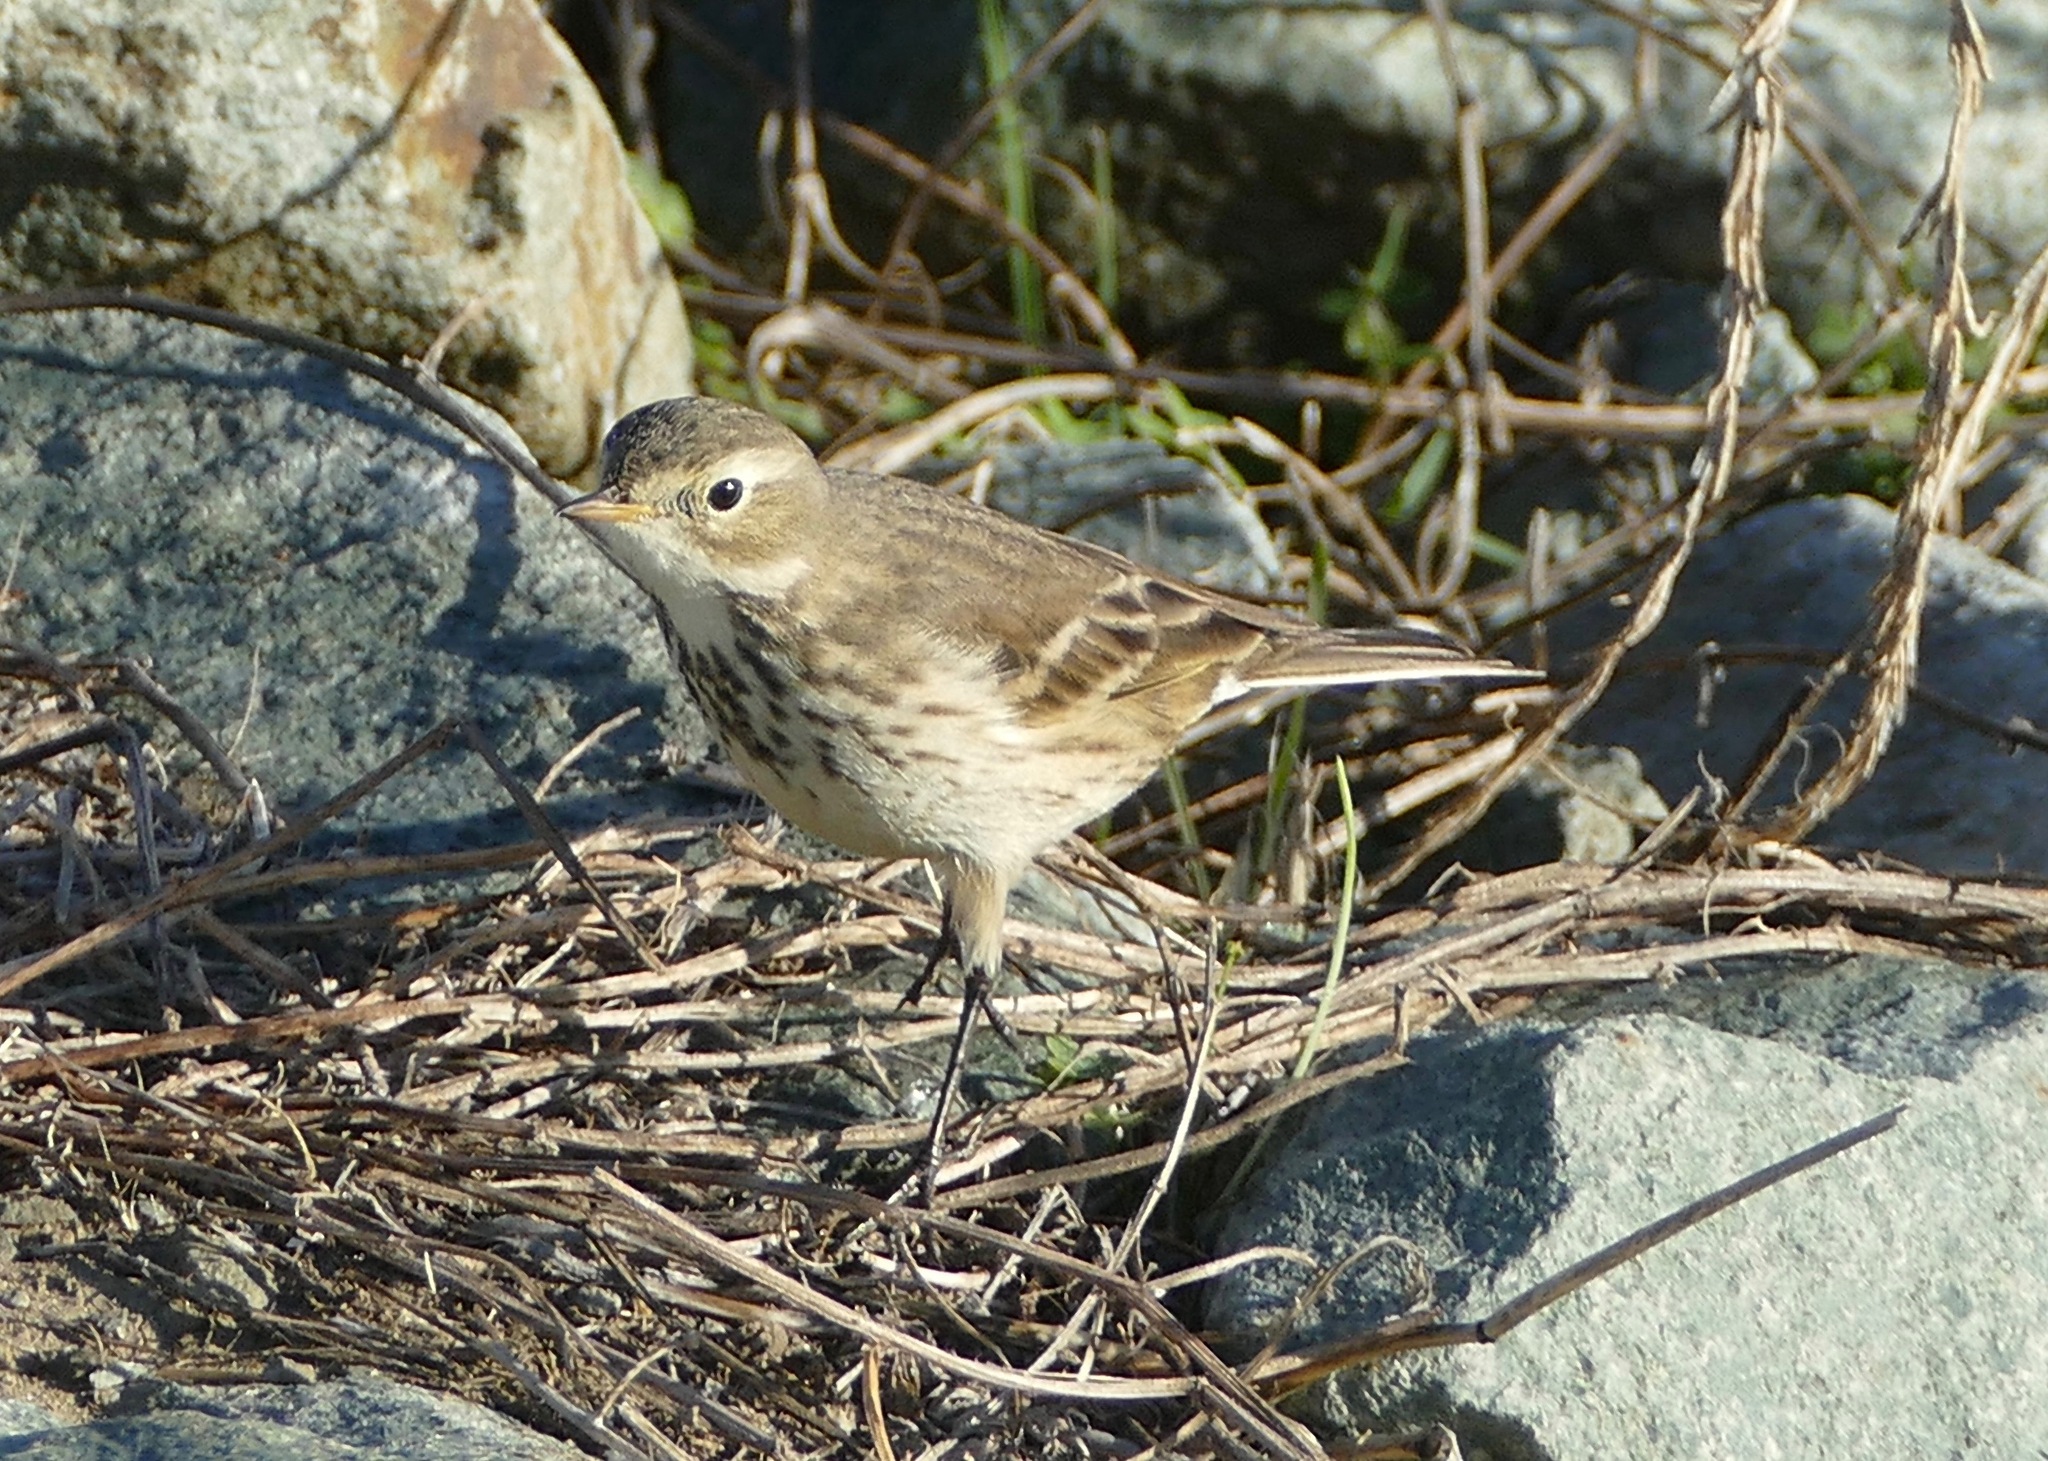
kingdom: Animalia
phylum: Chordata
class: Aves
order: Passeriformes
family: Motacillidae
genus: Anthus
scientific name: Anthus rubescens
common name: Buff-bellied pipit
